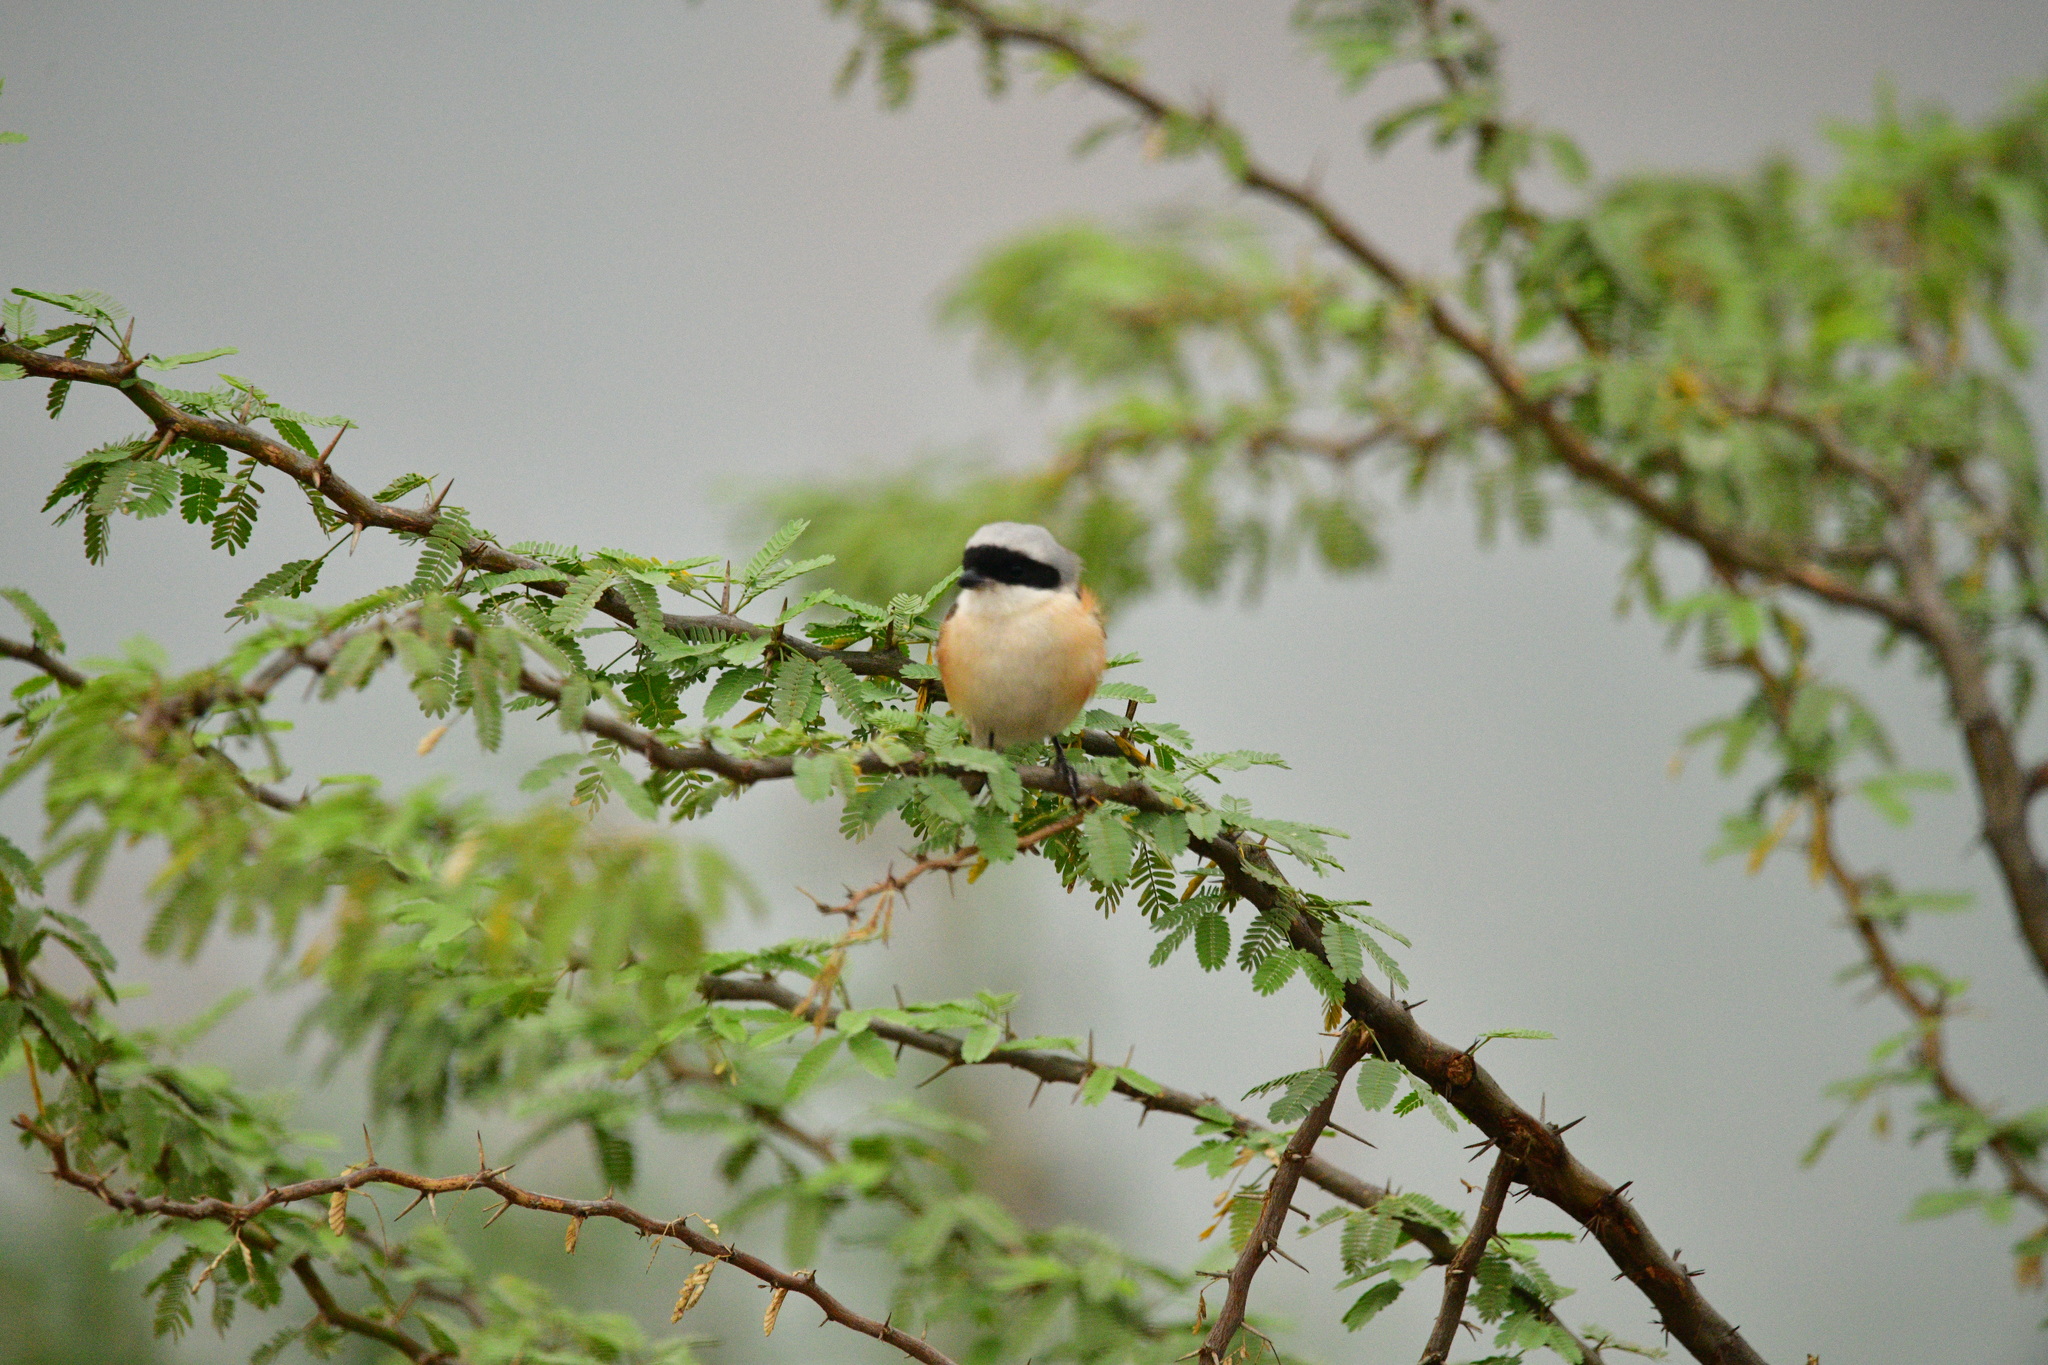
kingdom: Animalia
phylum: Chordata
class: Aves
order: Passeriformes
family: Laniidae
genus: Lanius
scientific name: Lanius vittatus
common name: Bay-backed shrike
